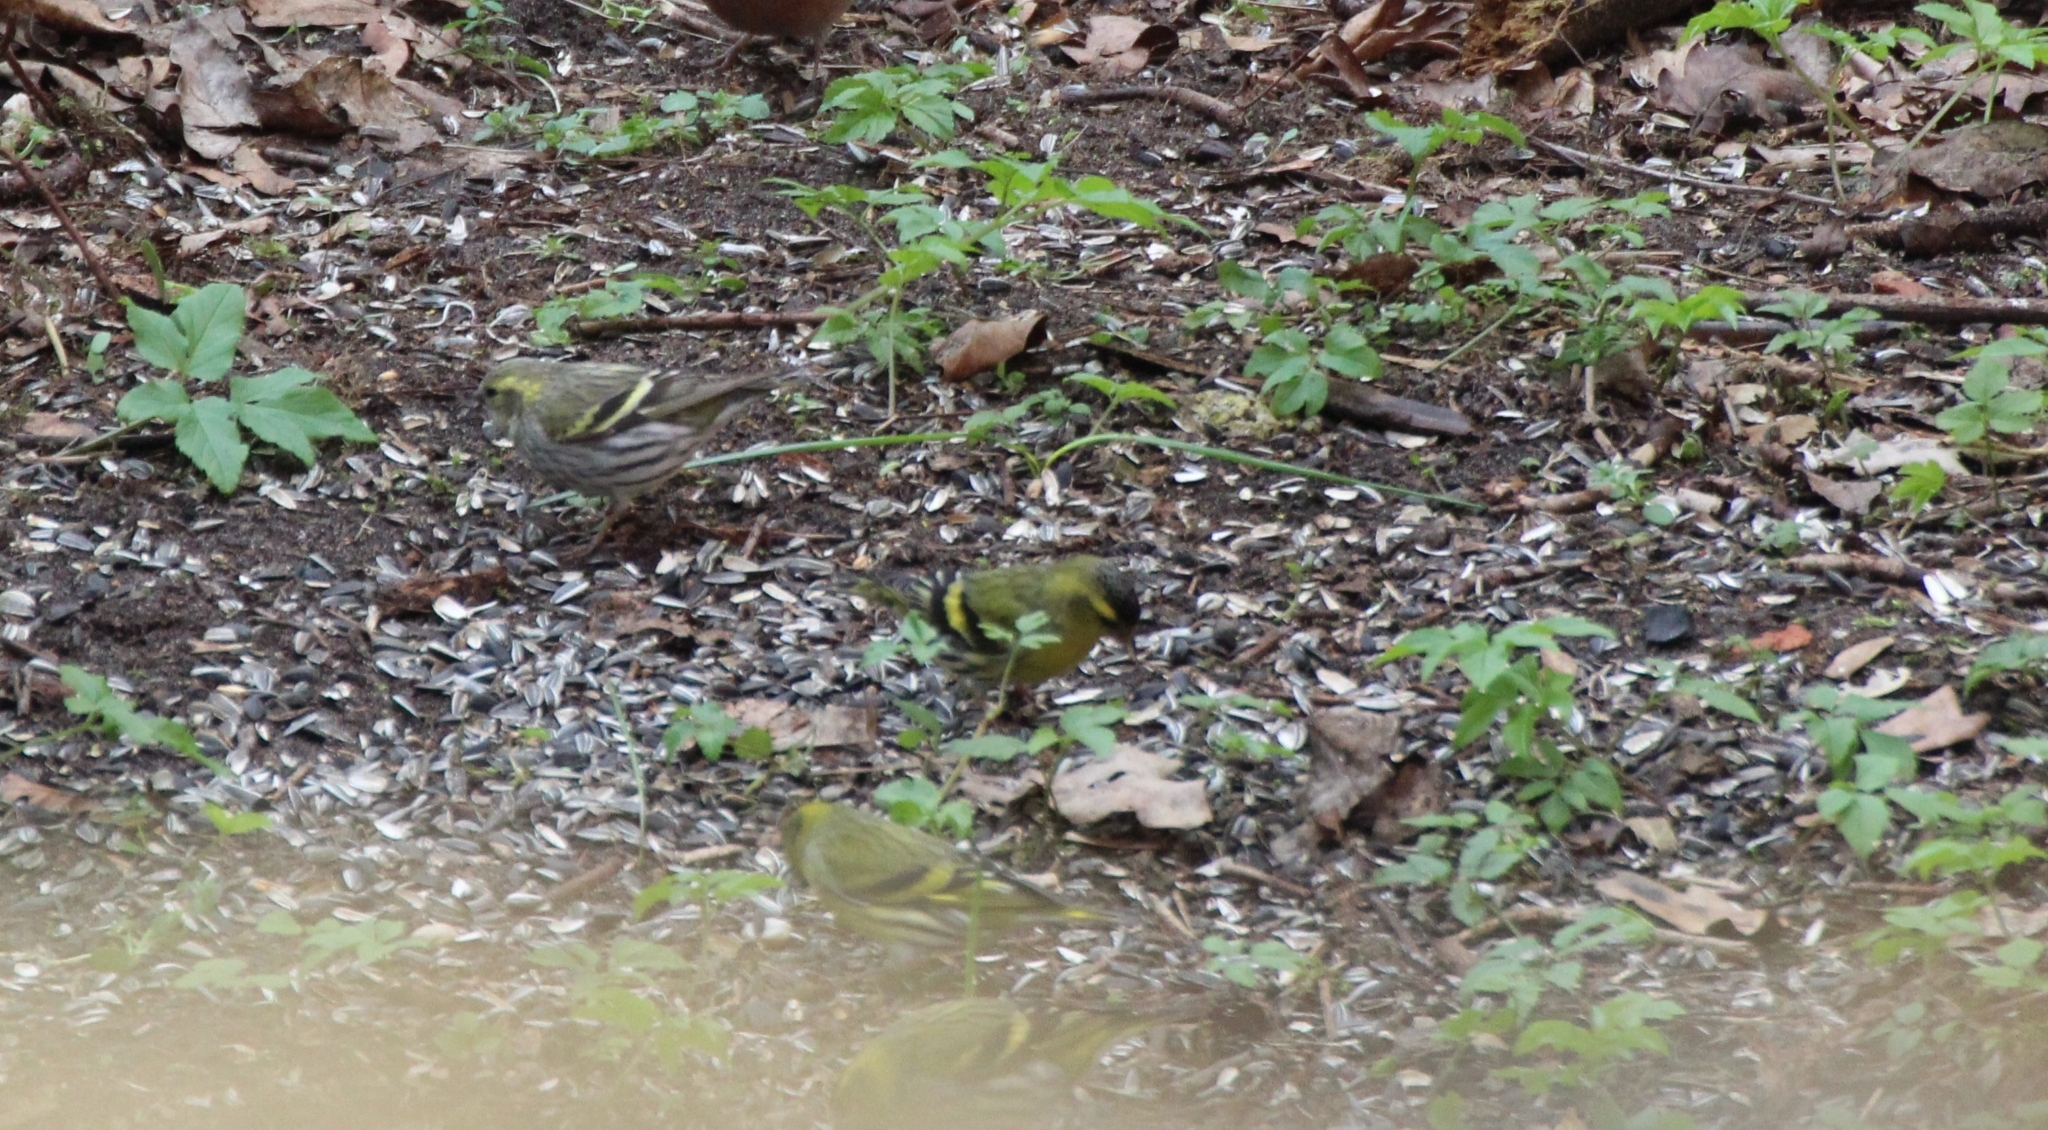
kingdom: Animalia
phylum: Chordata
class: Aves
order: Passeriformes
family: Fringillidae
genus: Spinus
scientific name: Spinus spinus
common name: Eurasian siskin
